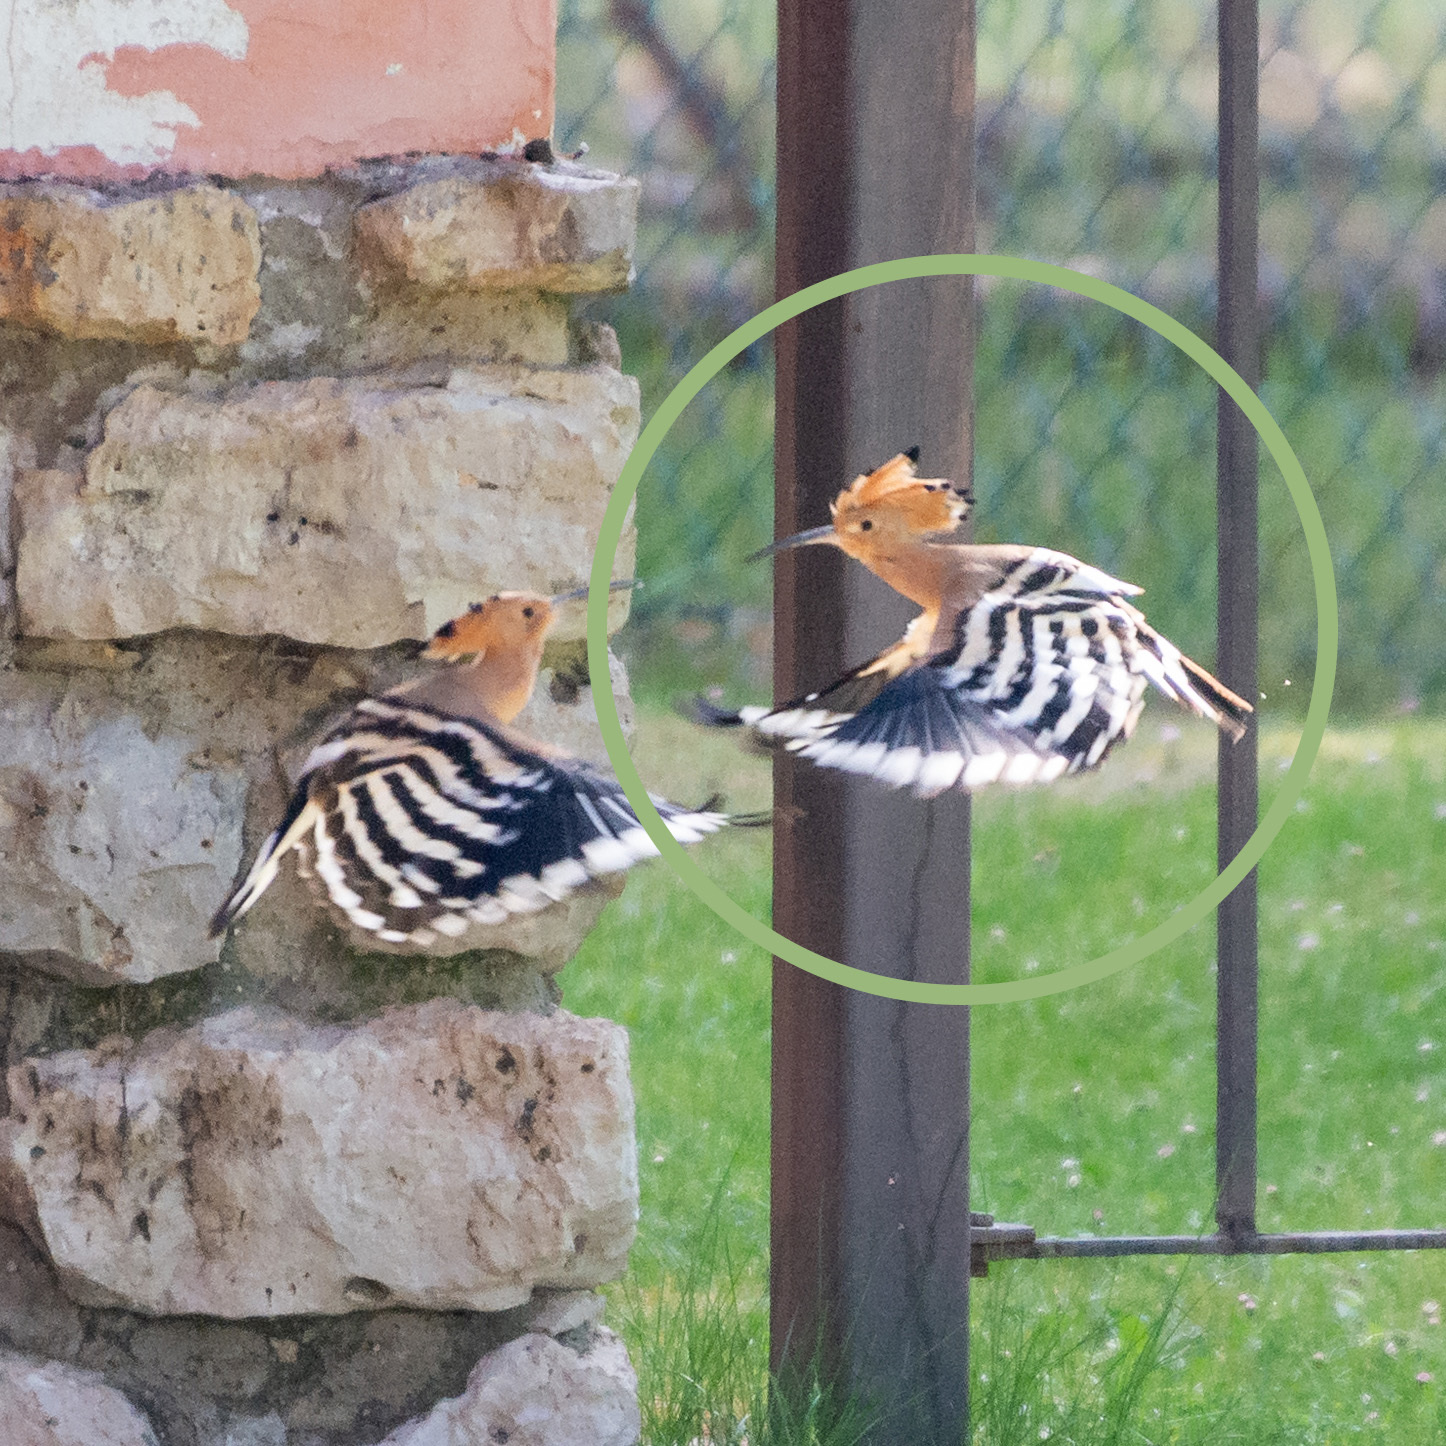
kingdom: Animalia
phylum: Chordata
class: Aves
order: Bucerotiformes
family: Upupidae
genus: Upupa
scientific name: Upupa epops
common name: Eurasian hoopoe
